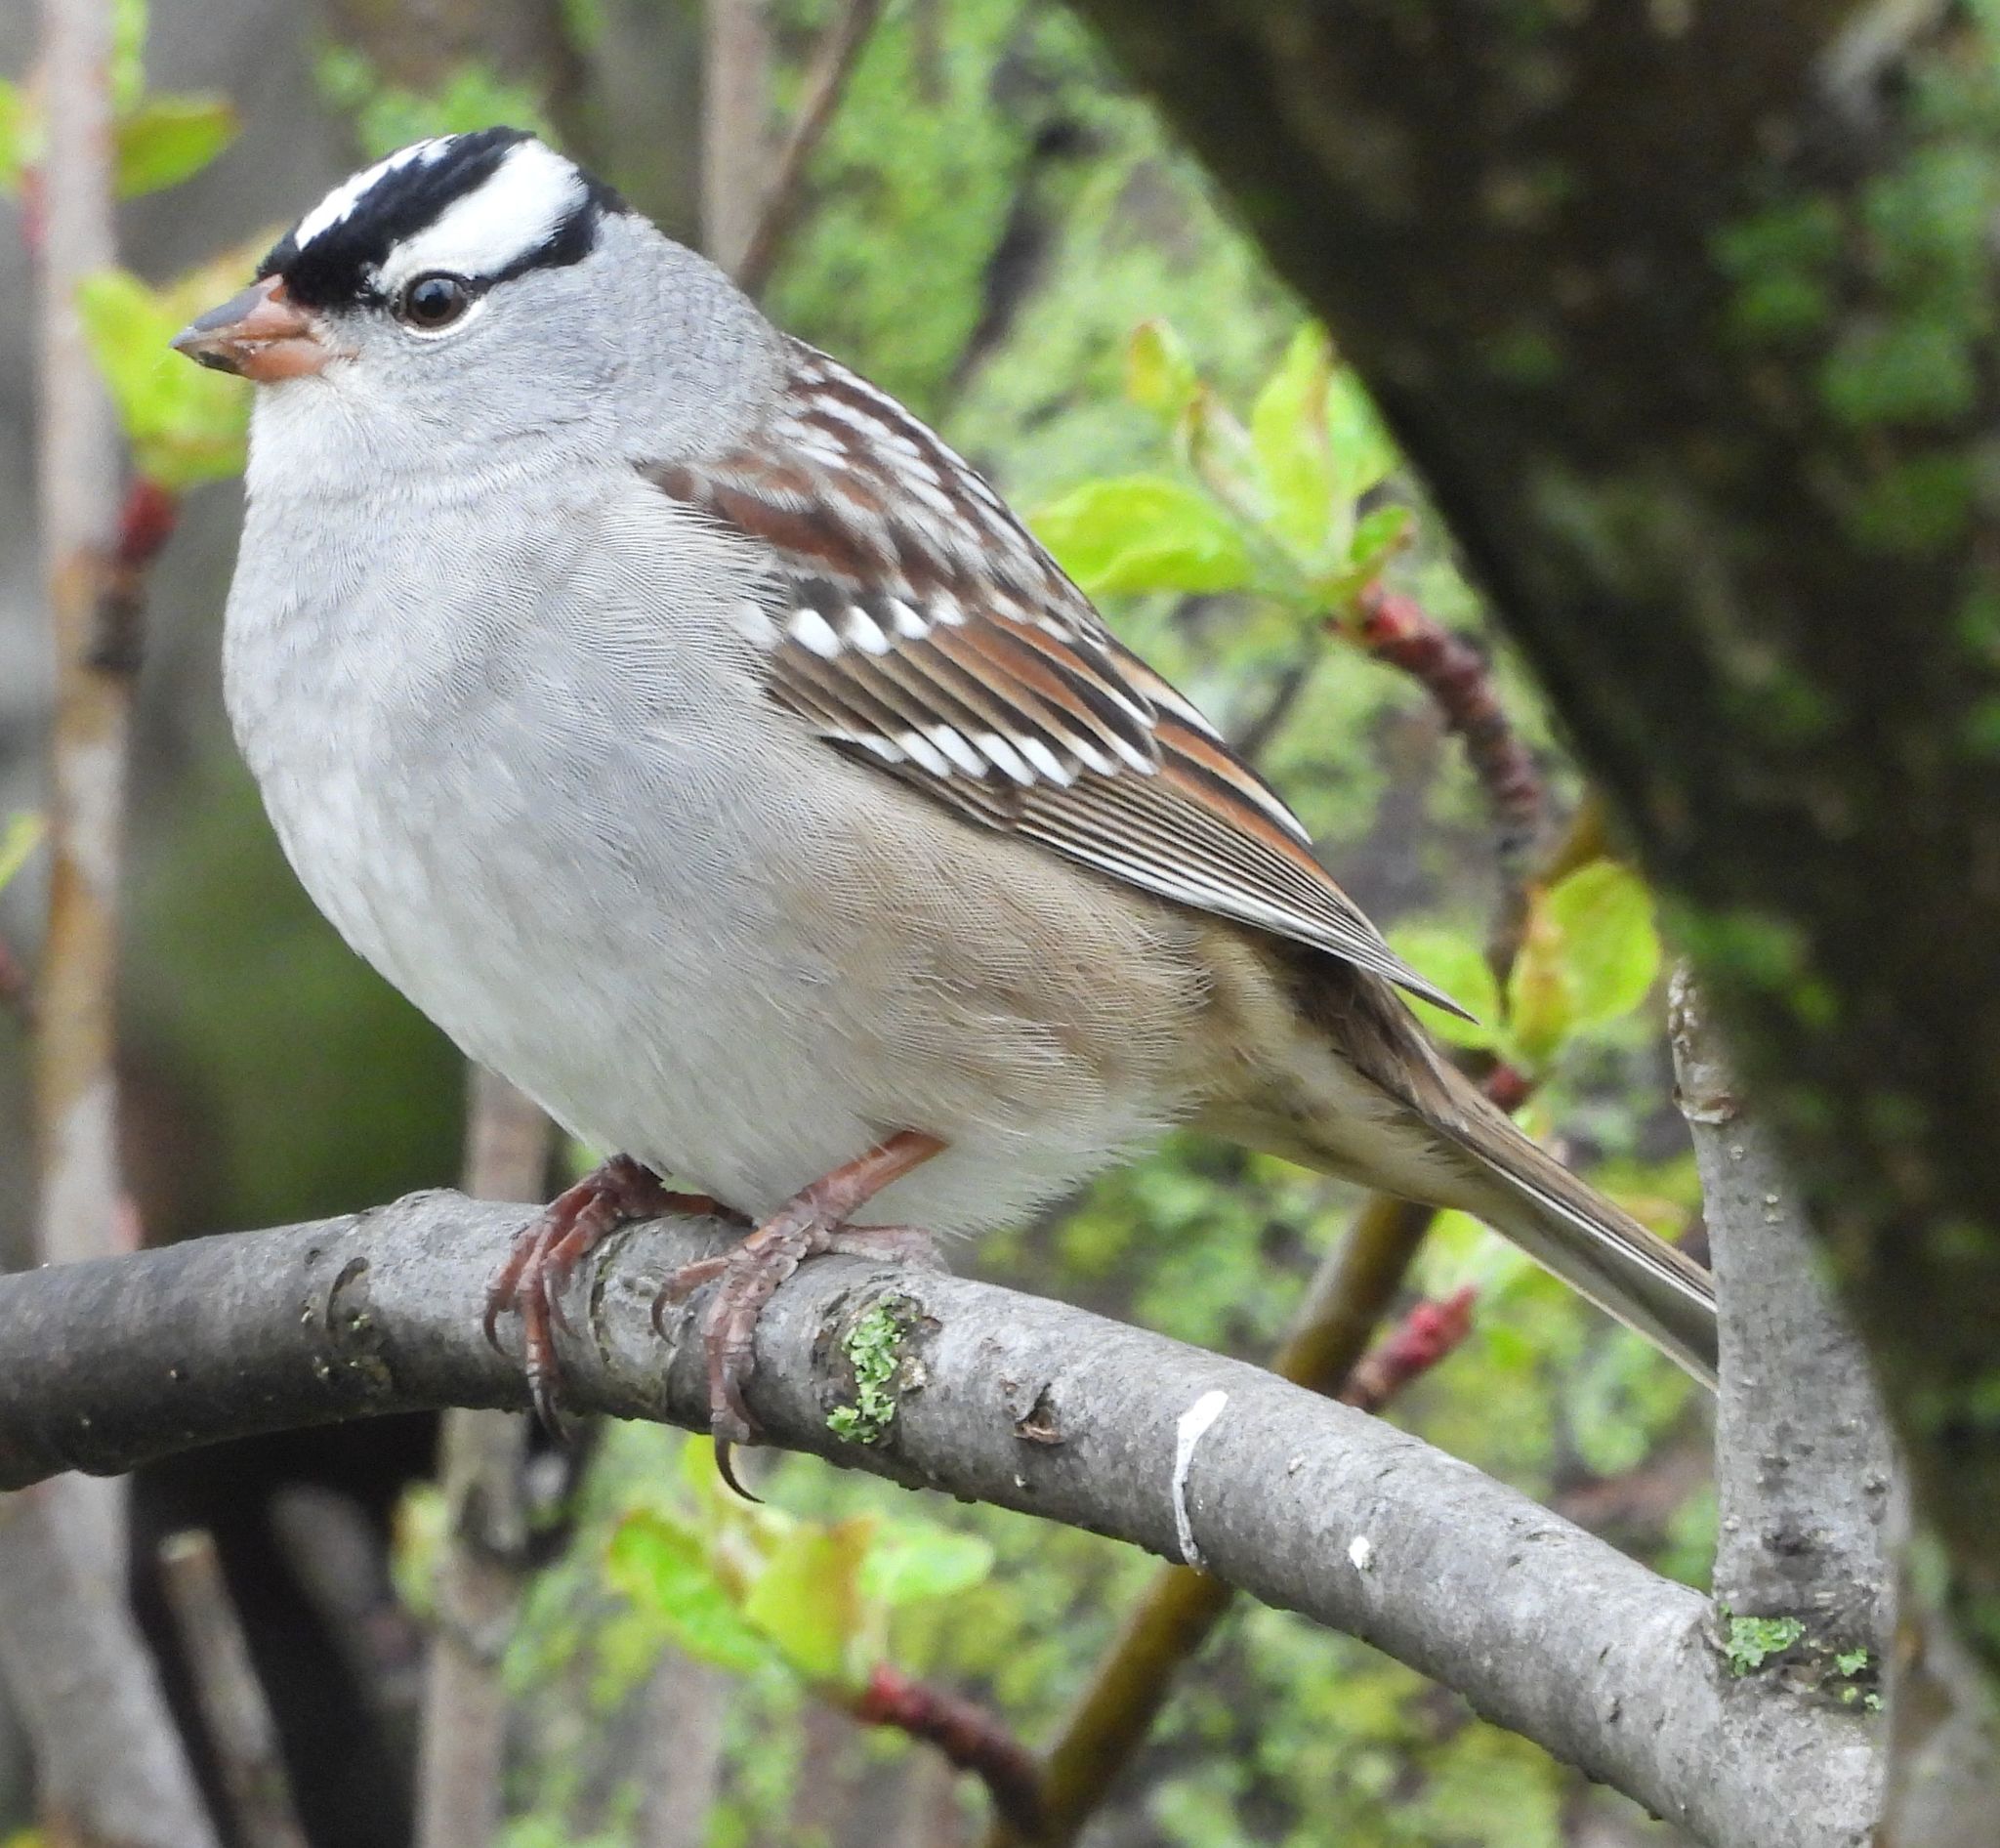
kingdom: Animalia
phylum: Chordata
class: Aves
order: Passeriformes
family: Passerellidae
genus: Zonotrichia
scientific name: Zonotrichia leucophrys
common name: White-crowned sparrow
